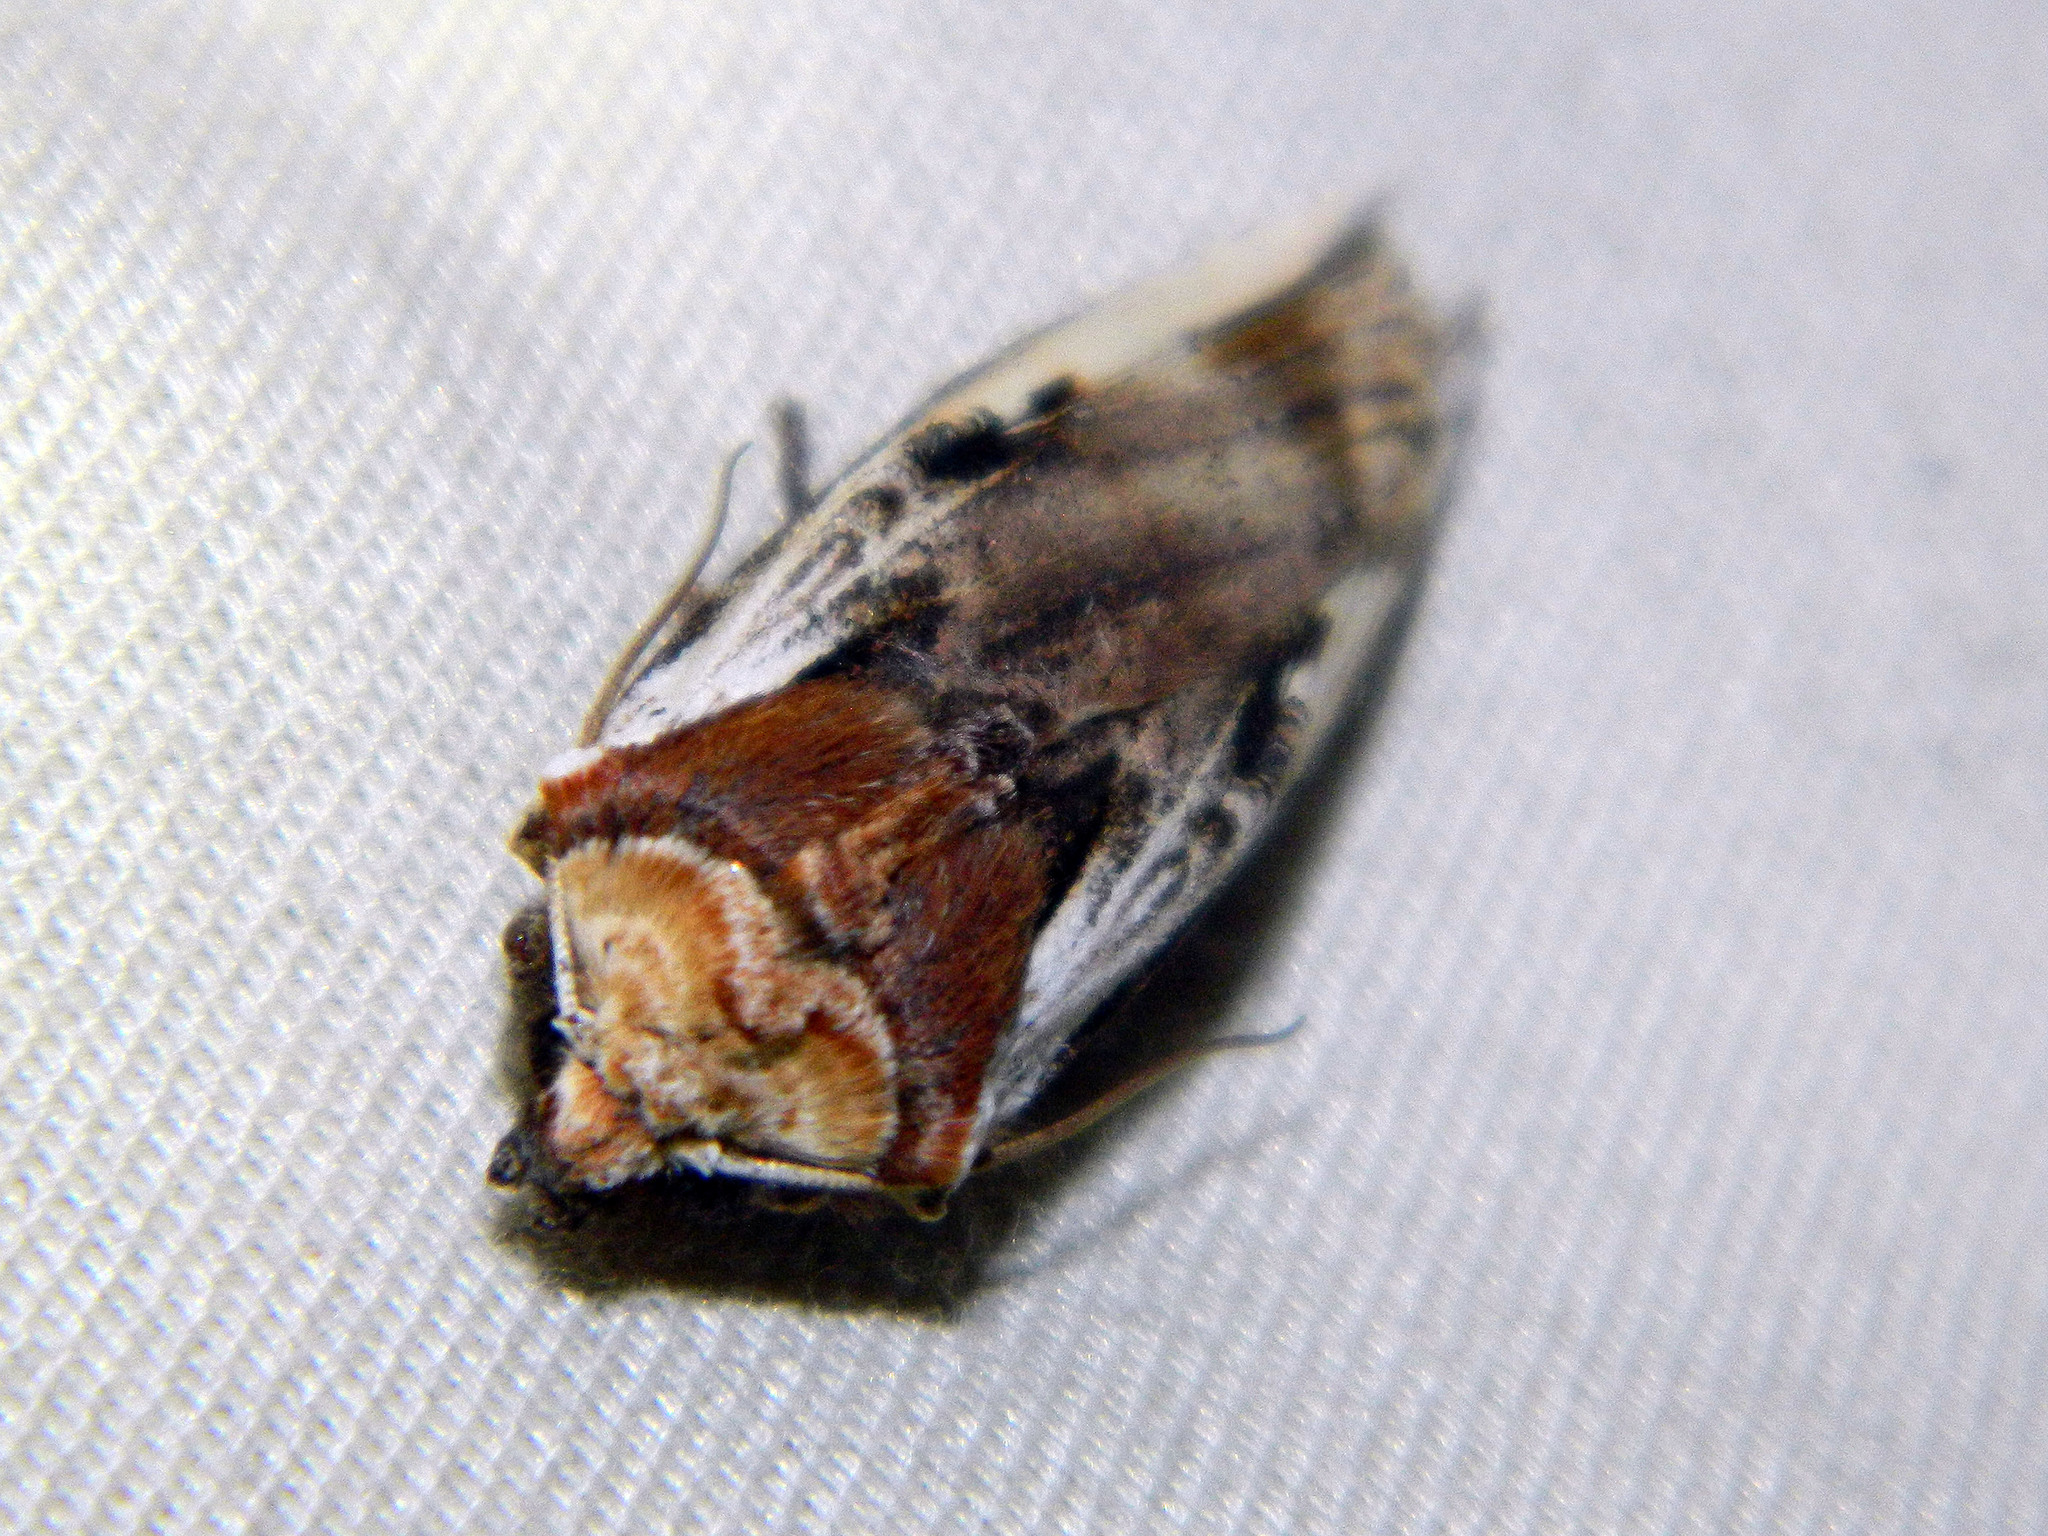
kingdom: Animalia
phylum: Arthropoda
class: Insecta
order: Lepidoptera
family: Noctuidae
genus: Xylena
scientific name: Xylena curvimacula
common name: Dot-and-dash swordgrass moth
